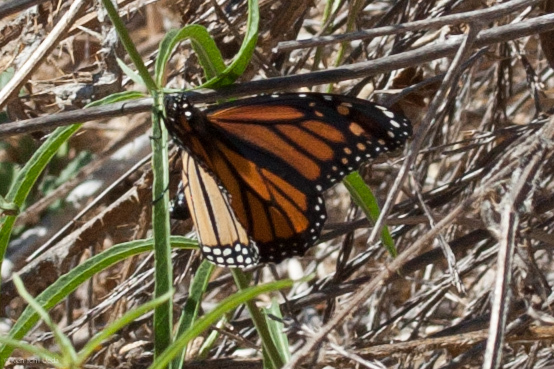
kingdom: Animalia
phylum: Arthropoda
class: Insecta
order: Lepidoptera
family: Nymphalidae
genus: Danaus
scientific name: Danaus plexippus
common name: Monarch
